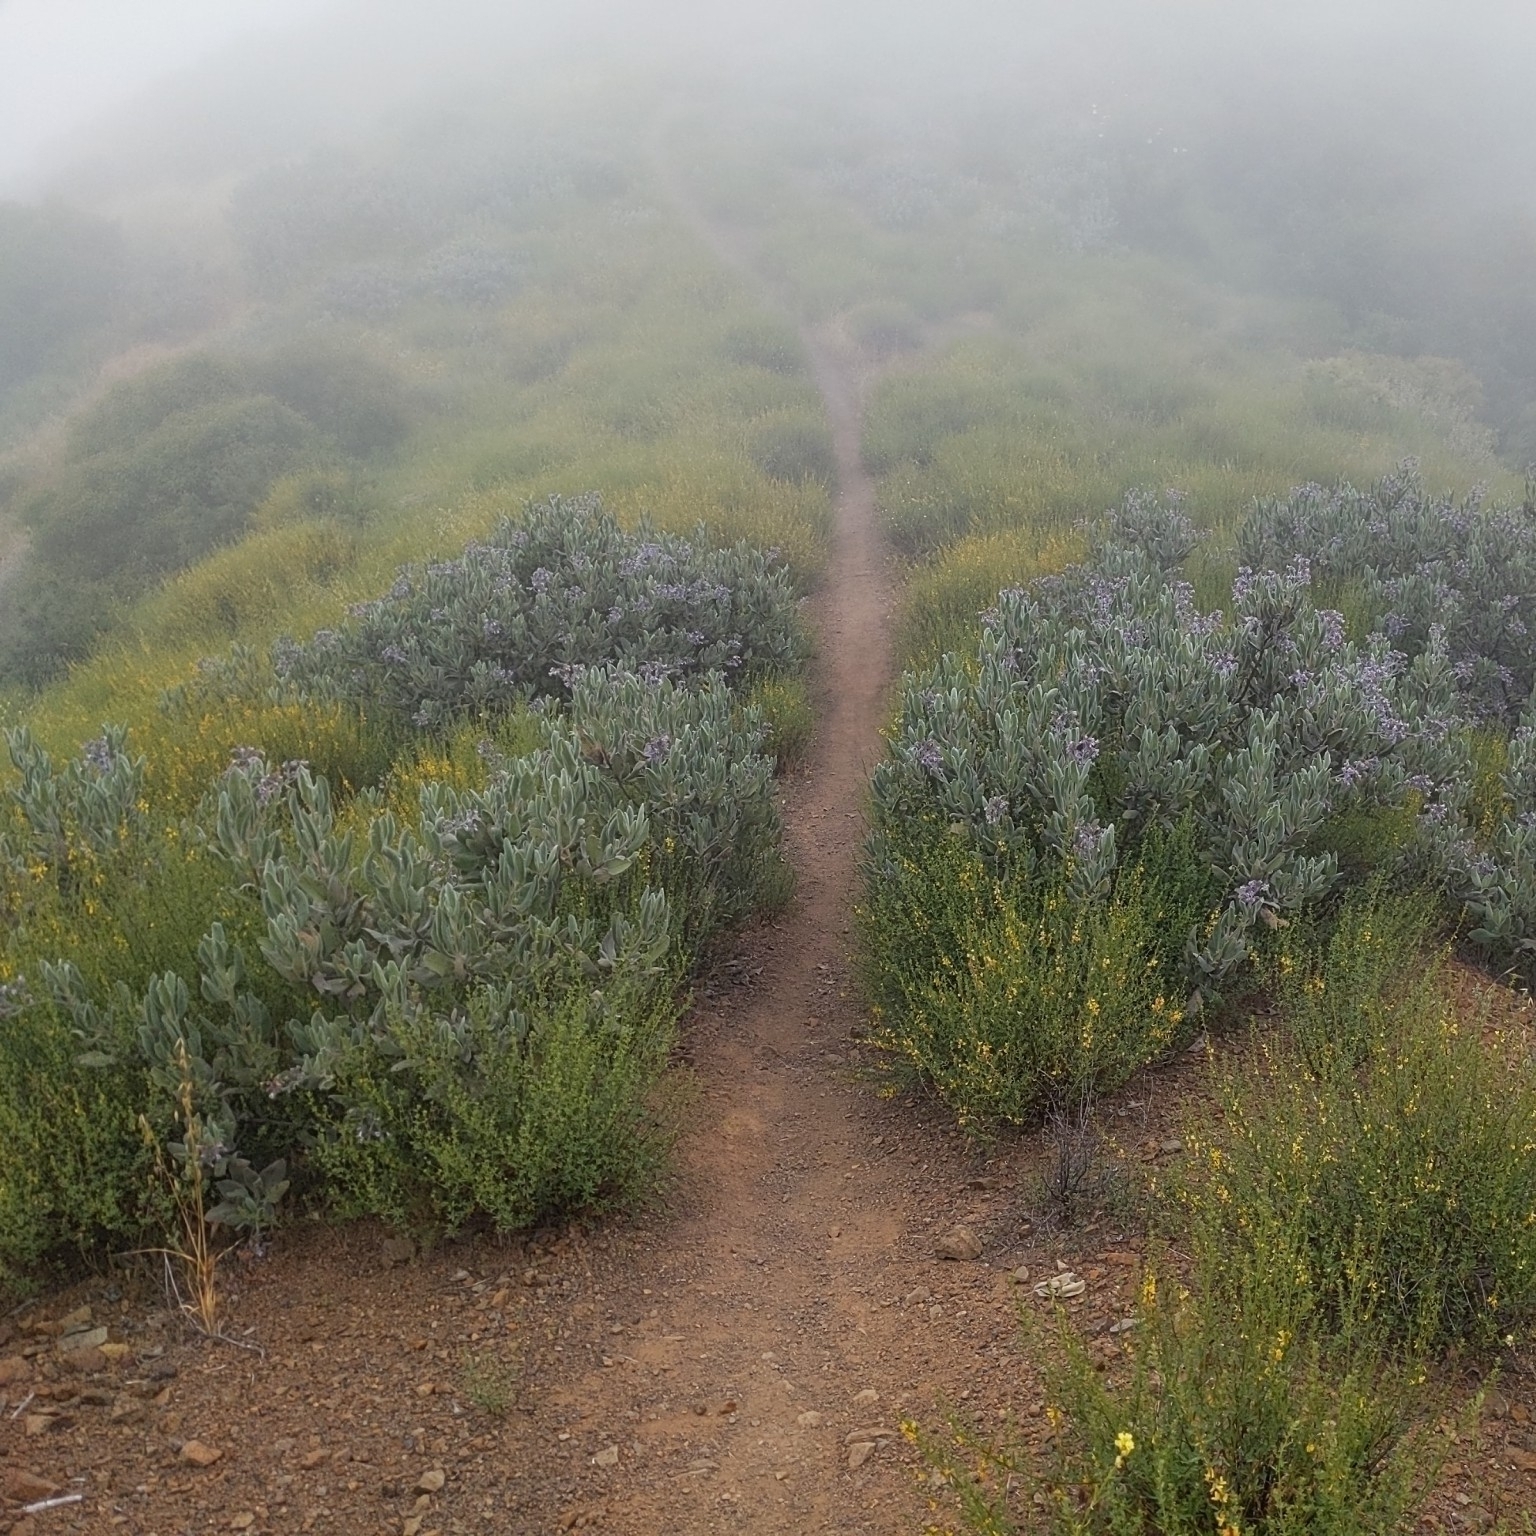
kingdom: Plantae
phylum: Tracheophyta
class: Magnoliopsida
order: Boraginales
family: Namaceae
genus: Eriodictyon
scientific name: Eriodictyon crassifolium
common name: Thick-leaf yerba-santa
